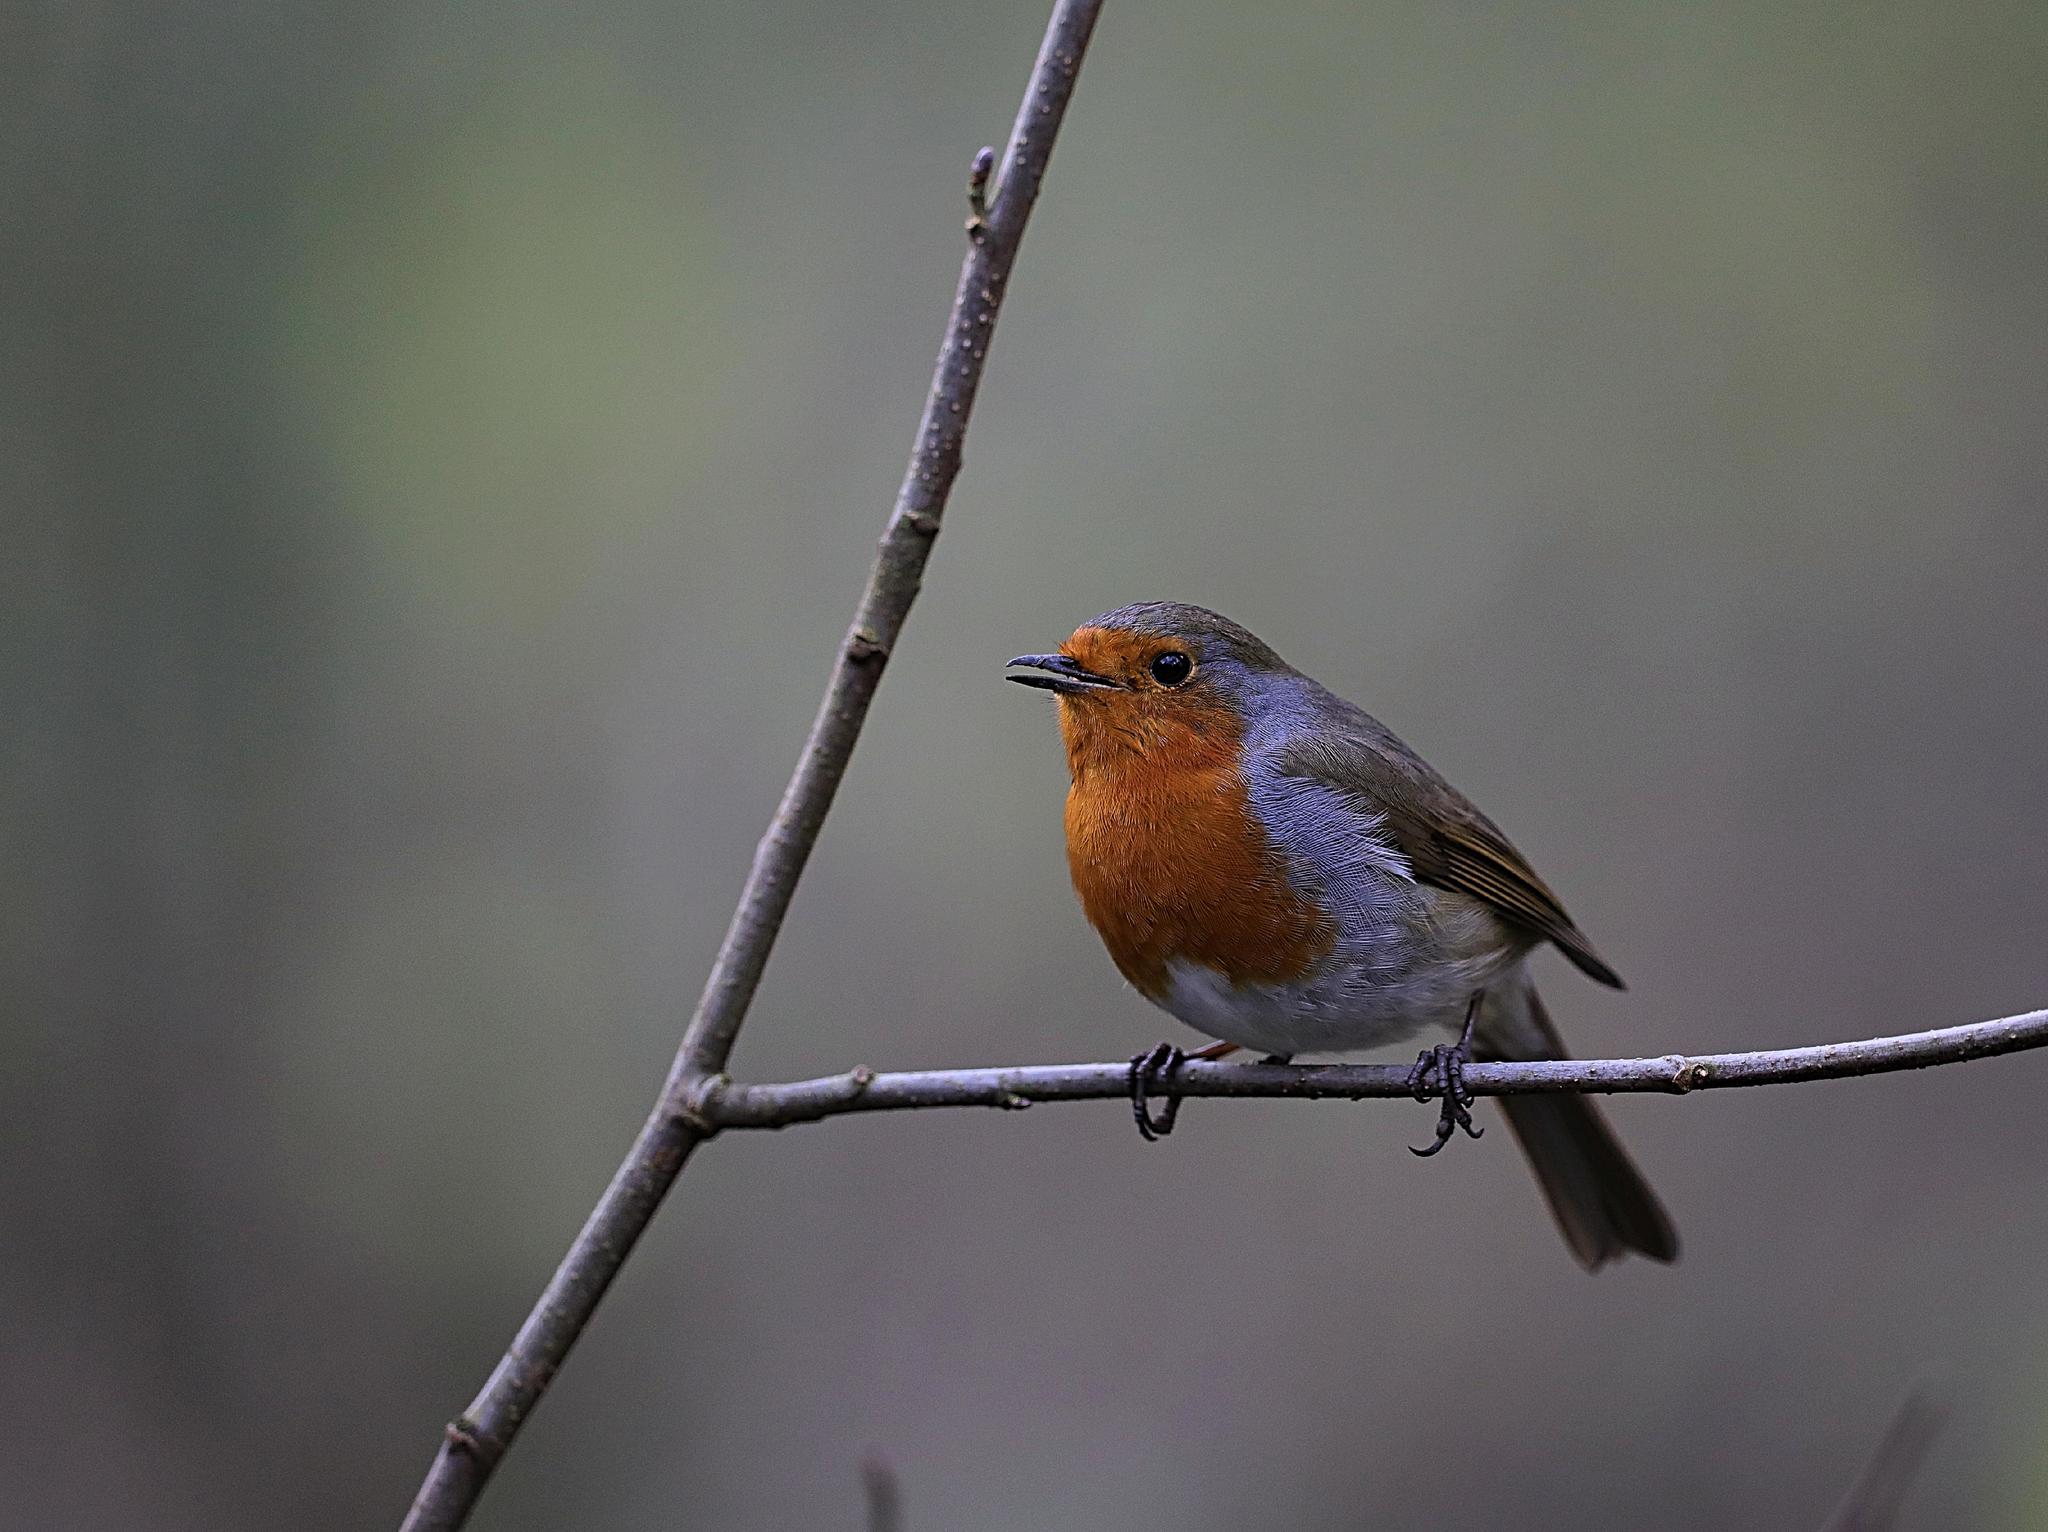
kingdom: Animalia
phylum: Chordata
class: Aves
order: Passeriformes
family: Muscicapidae
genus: Erithacus
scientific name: Erithacus rubecula
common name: European robin
